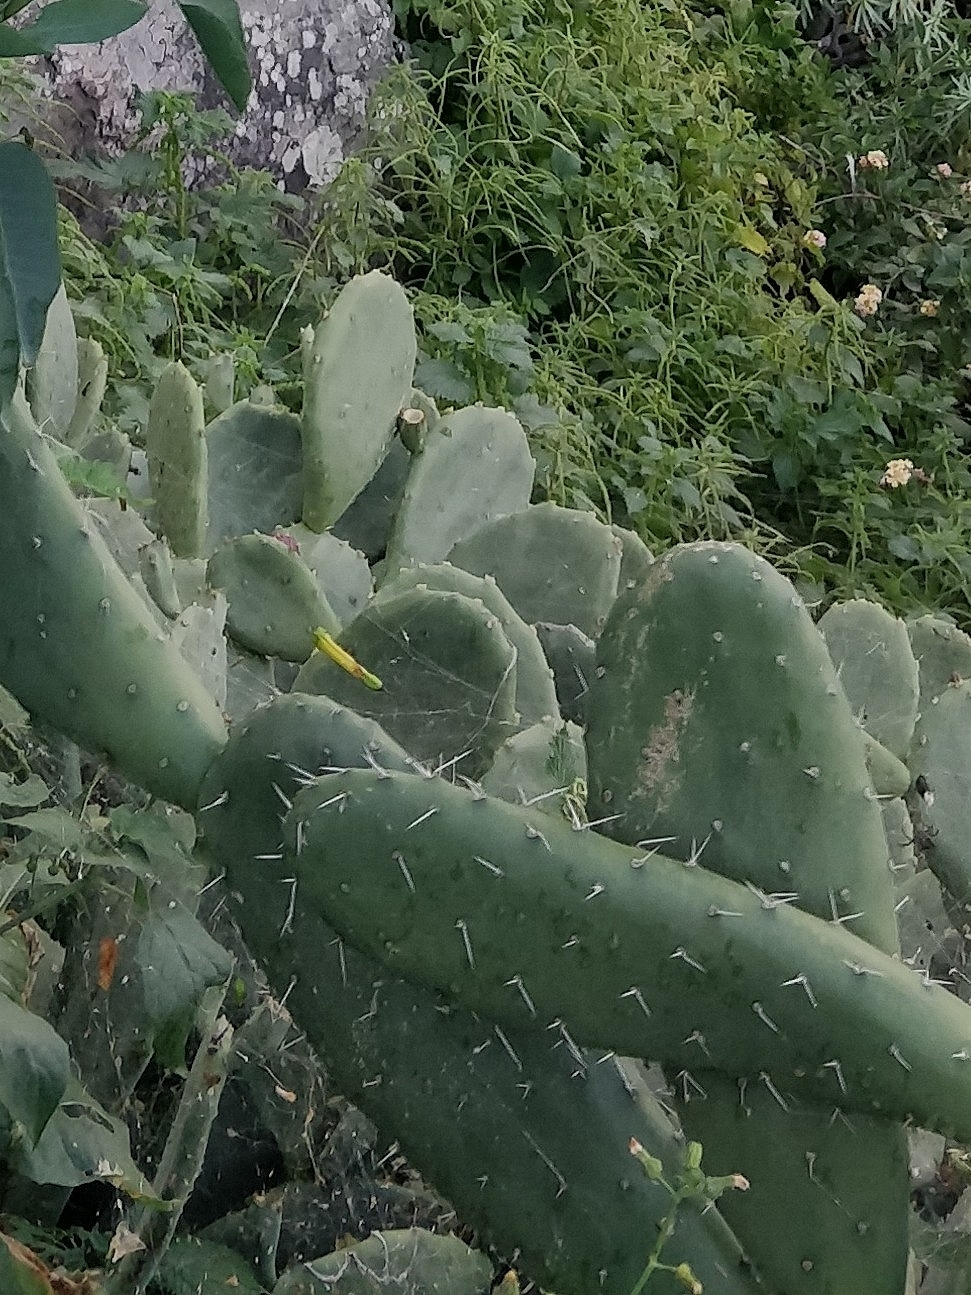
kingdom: Plantae
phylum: Tracheophyta
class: Magnoliopsida
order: Caryophyllales
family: Cactaceae
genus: Opuntia
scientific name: Opuntia ficus-indica
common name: Barbary fig
